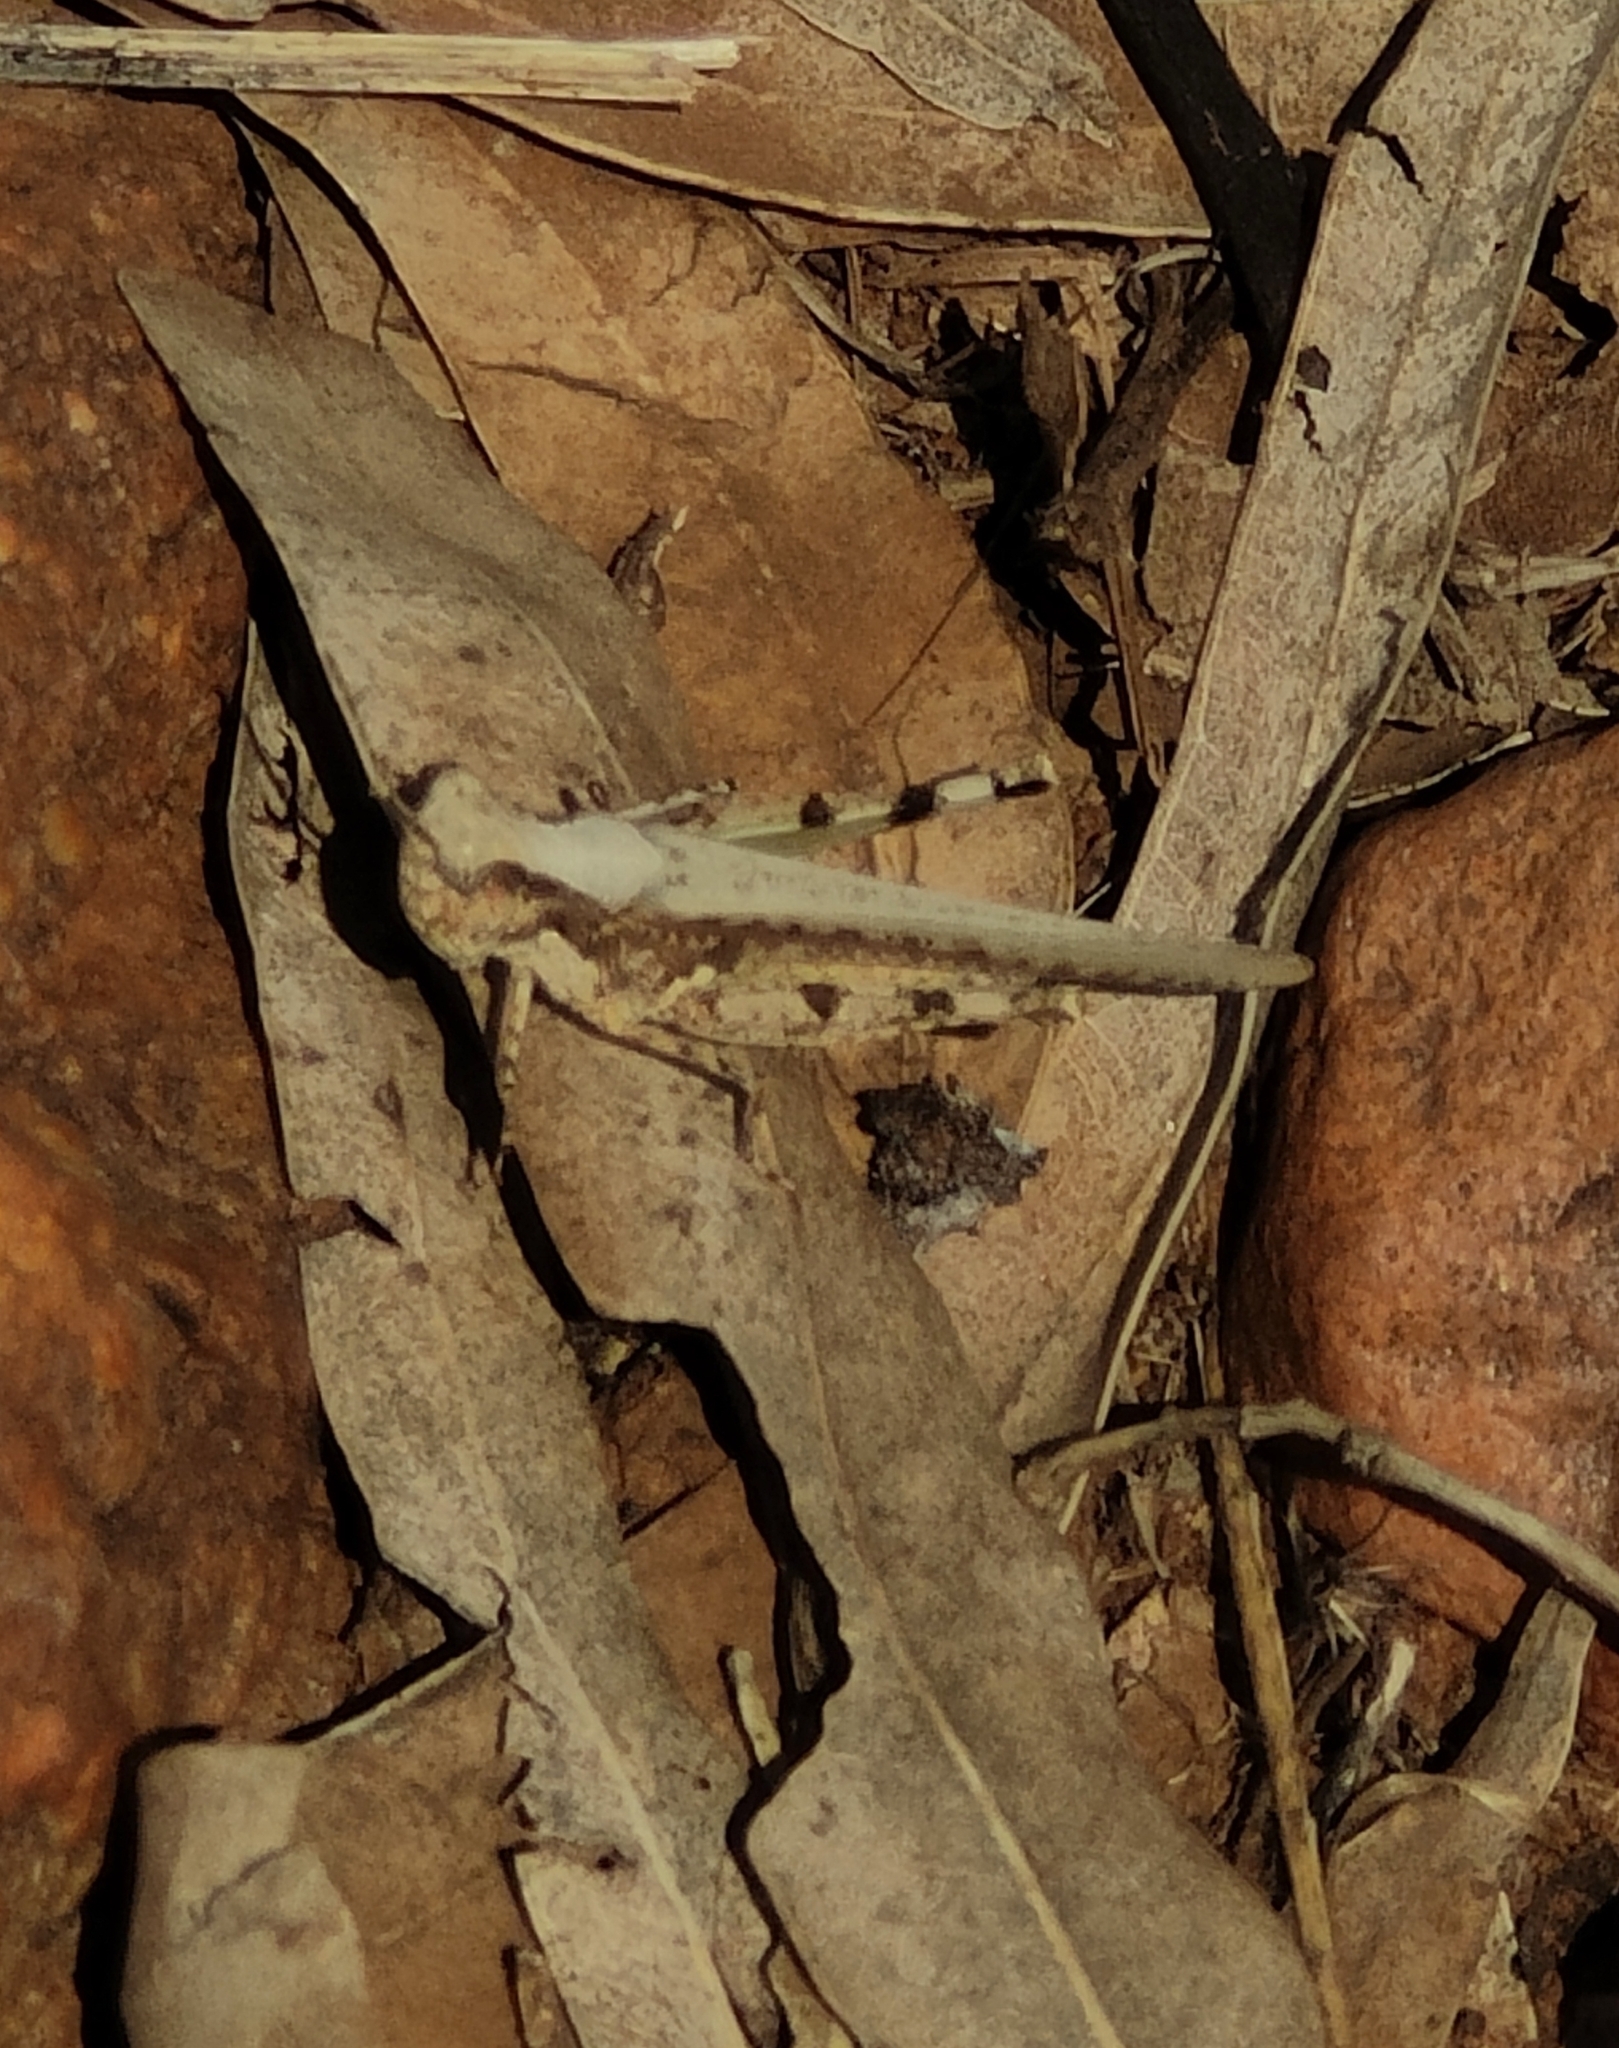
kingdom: Animalia
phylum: Arthropoda
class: Insecta
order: Orthoptera
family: Acrididae
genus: Pycnostictus
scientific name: Pycnostictus seriatus
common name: Common bandwing
